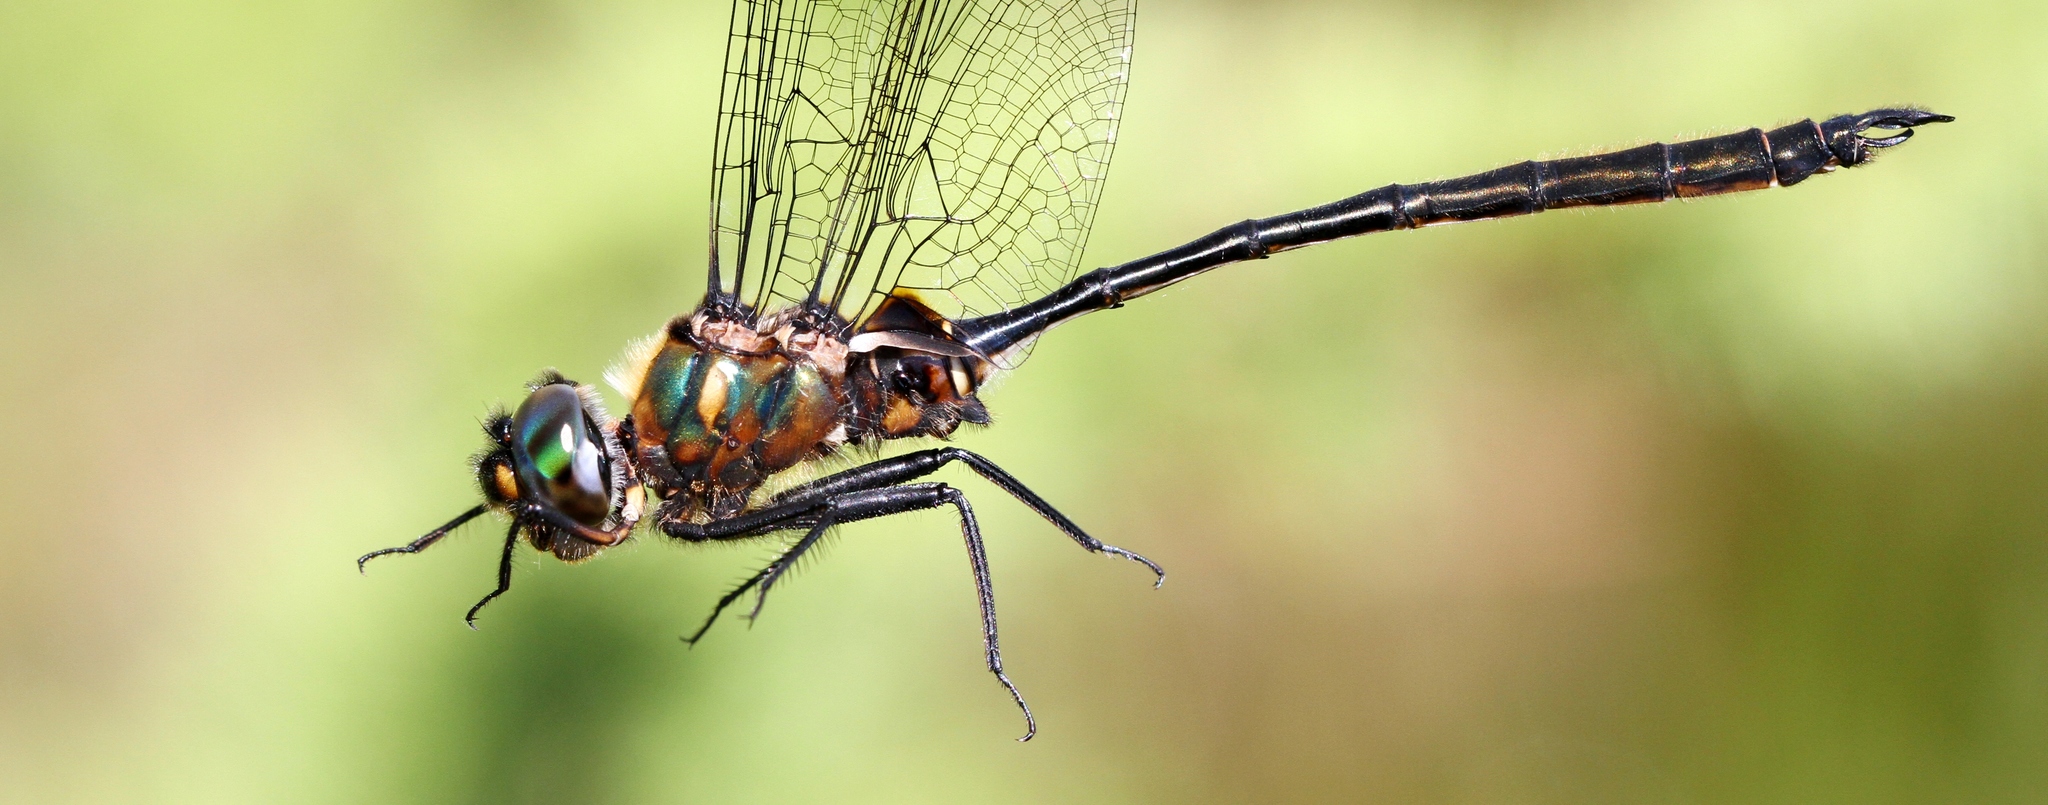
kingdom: Animalia
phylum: Arthropoda
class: Insecta
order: Odonata
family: Corduliidae
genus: Somatochlora
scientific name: Somatochlora franklini
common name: Delicate emerald
